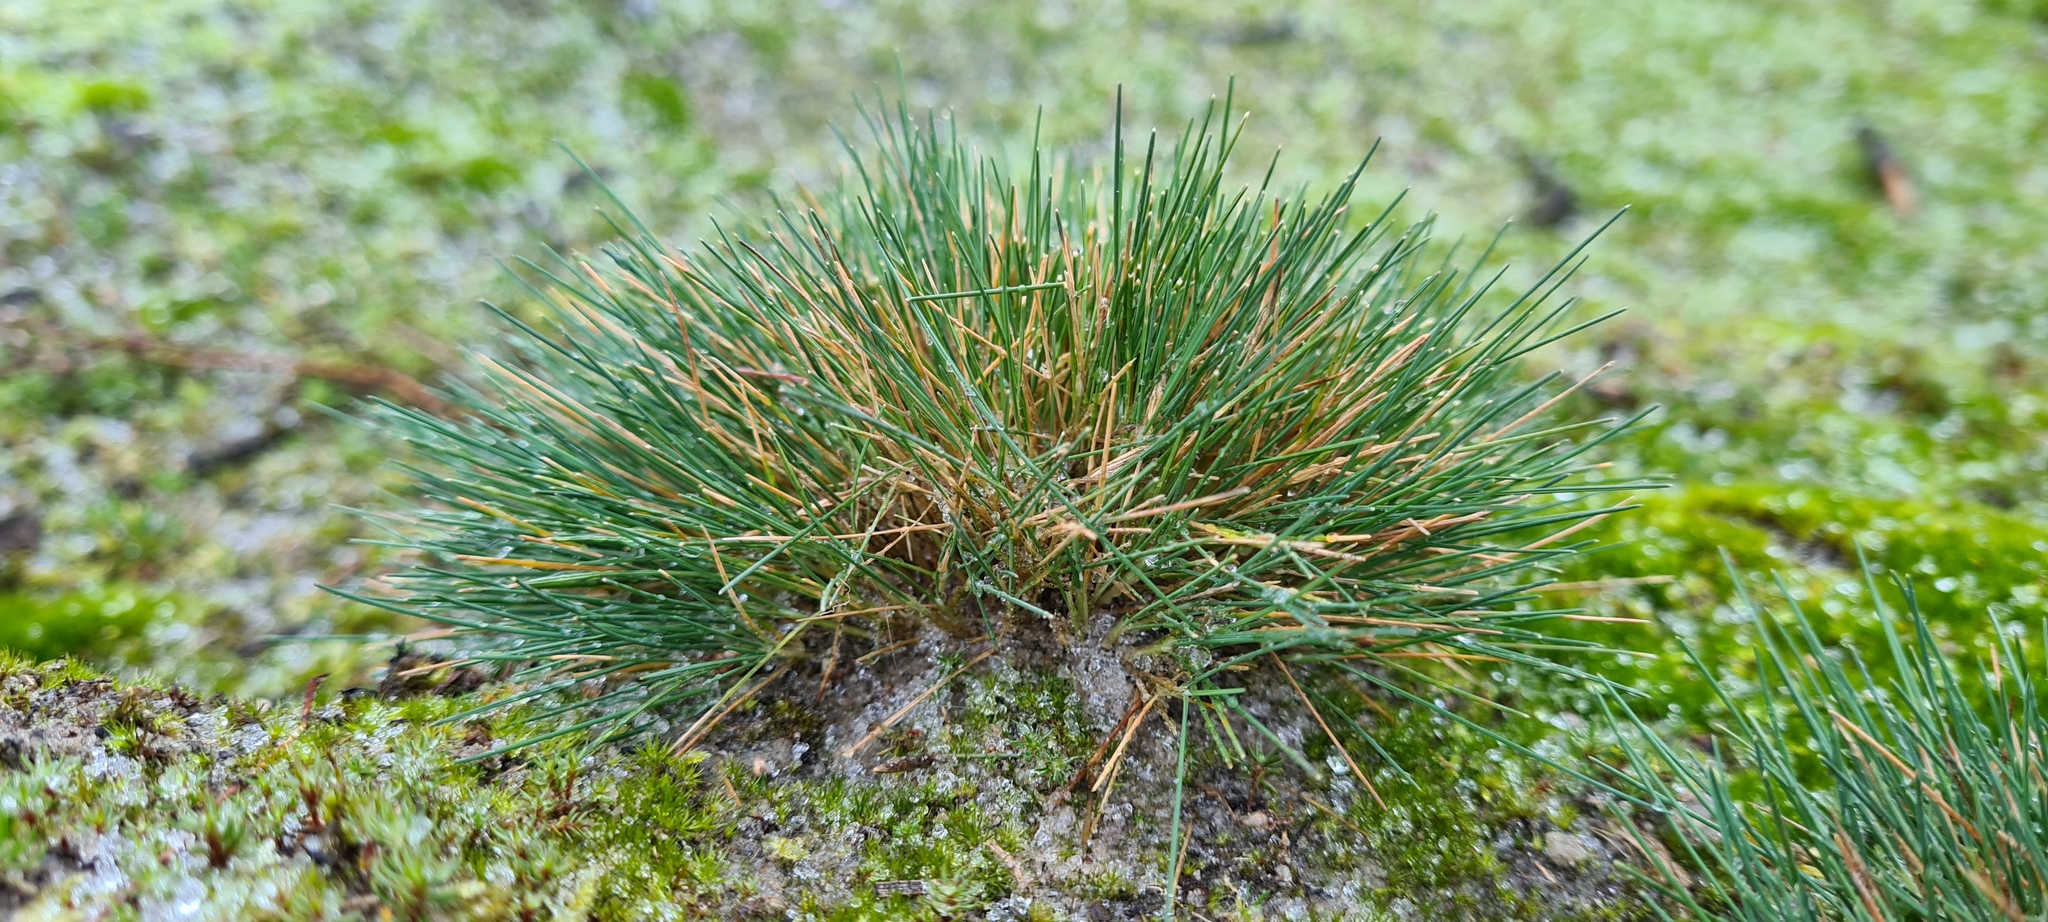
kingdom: Plantae
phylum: Tracheophyta
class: Liliopsida
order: Poales
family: Poaceae
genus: Corynephorus
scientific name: Corynephorus canescens
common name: Grey hair-grass
